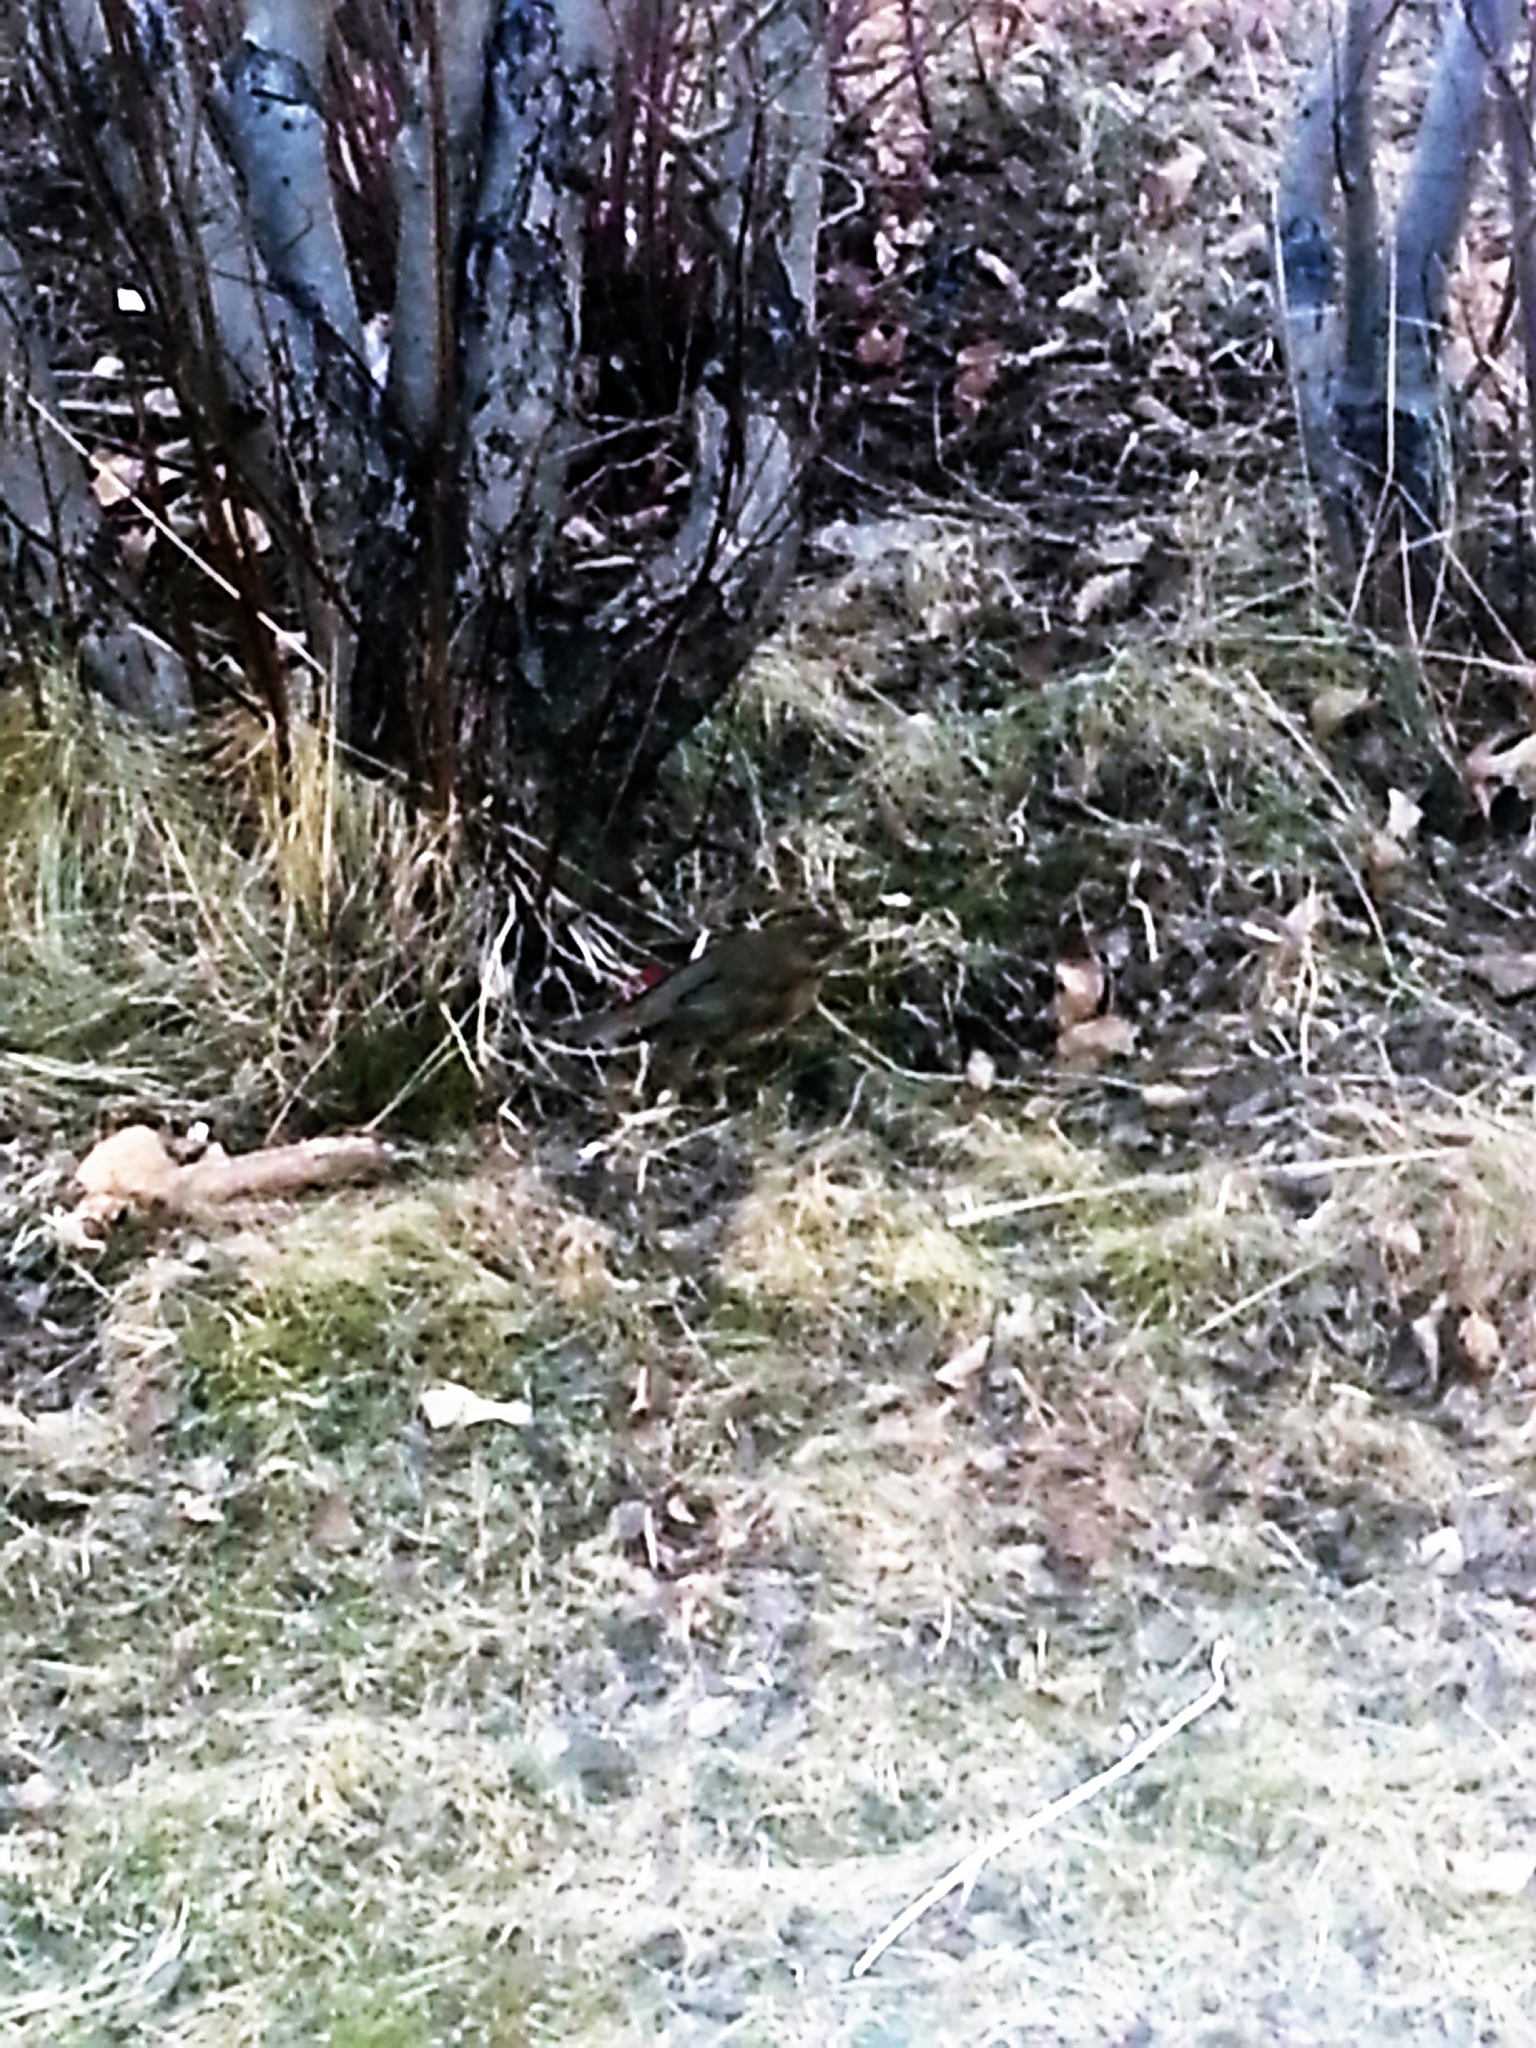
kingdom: Animalia
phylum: Chordata
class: Aves
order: Passeriformes
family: Turdidae
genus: Turdus
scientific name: Turdus iliacus
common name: Redwing
